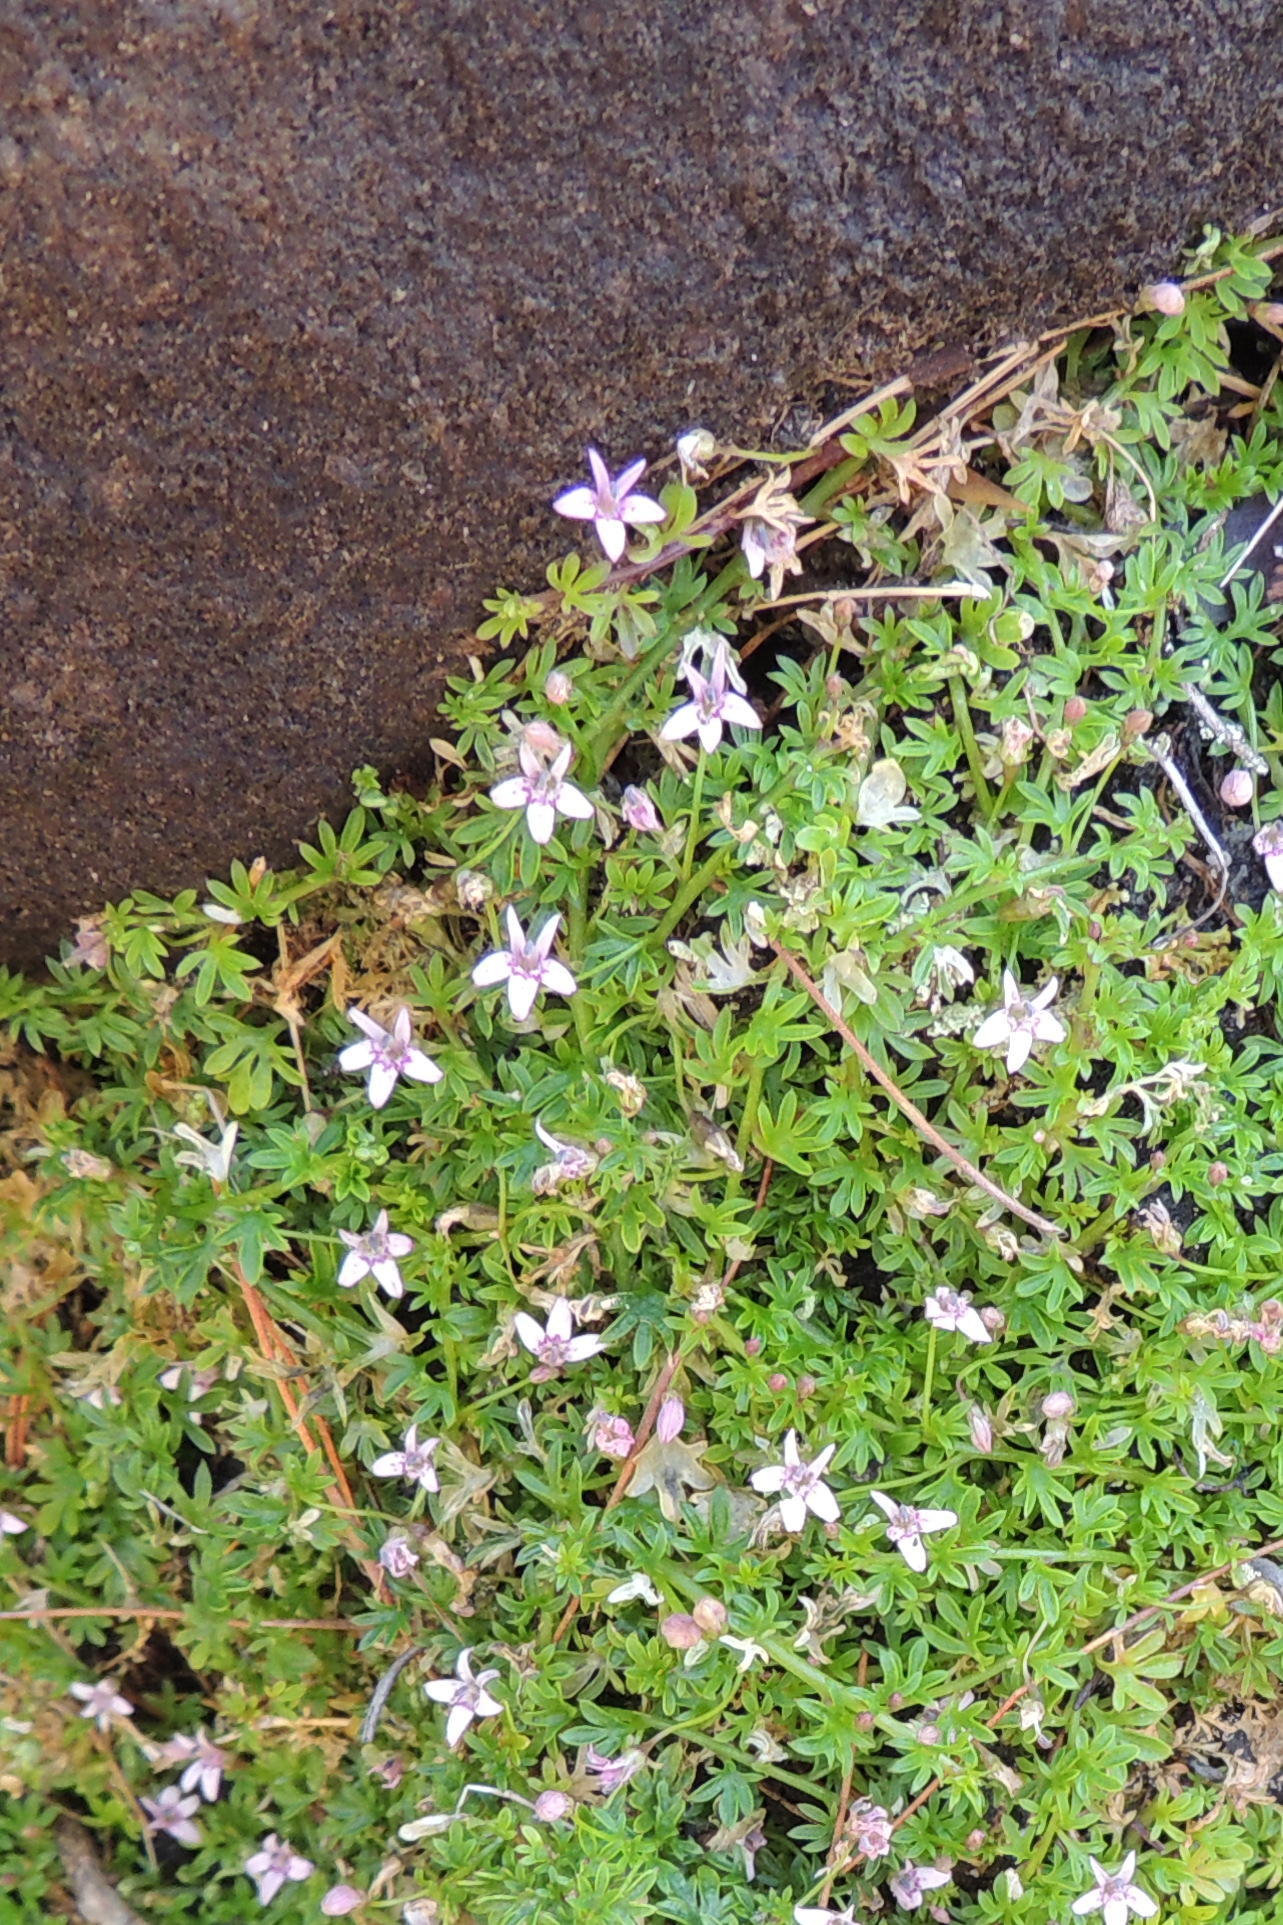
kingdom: Plantae
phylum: Tracheophyta
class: Magnoliopsida
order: Asterales
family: Campanulaceae
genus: Lobelia
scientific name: Lobelia muscoides
